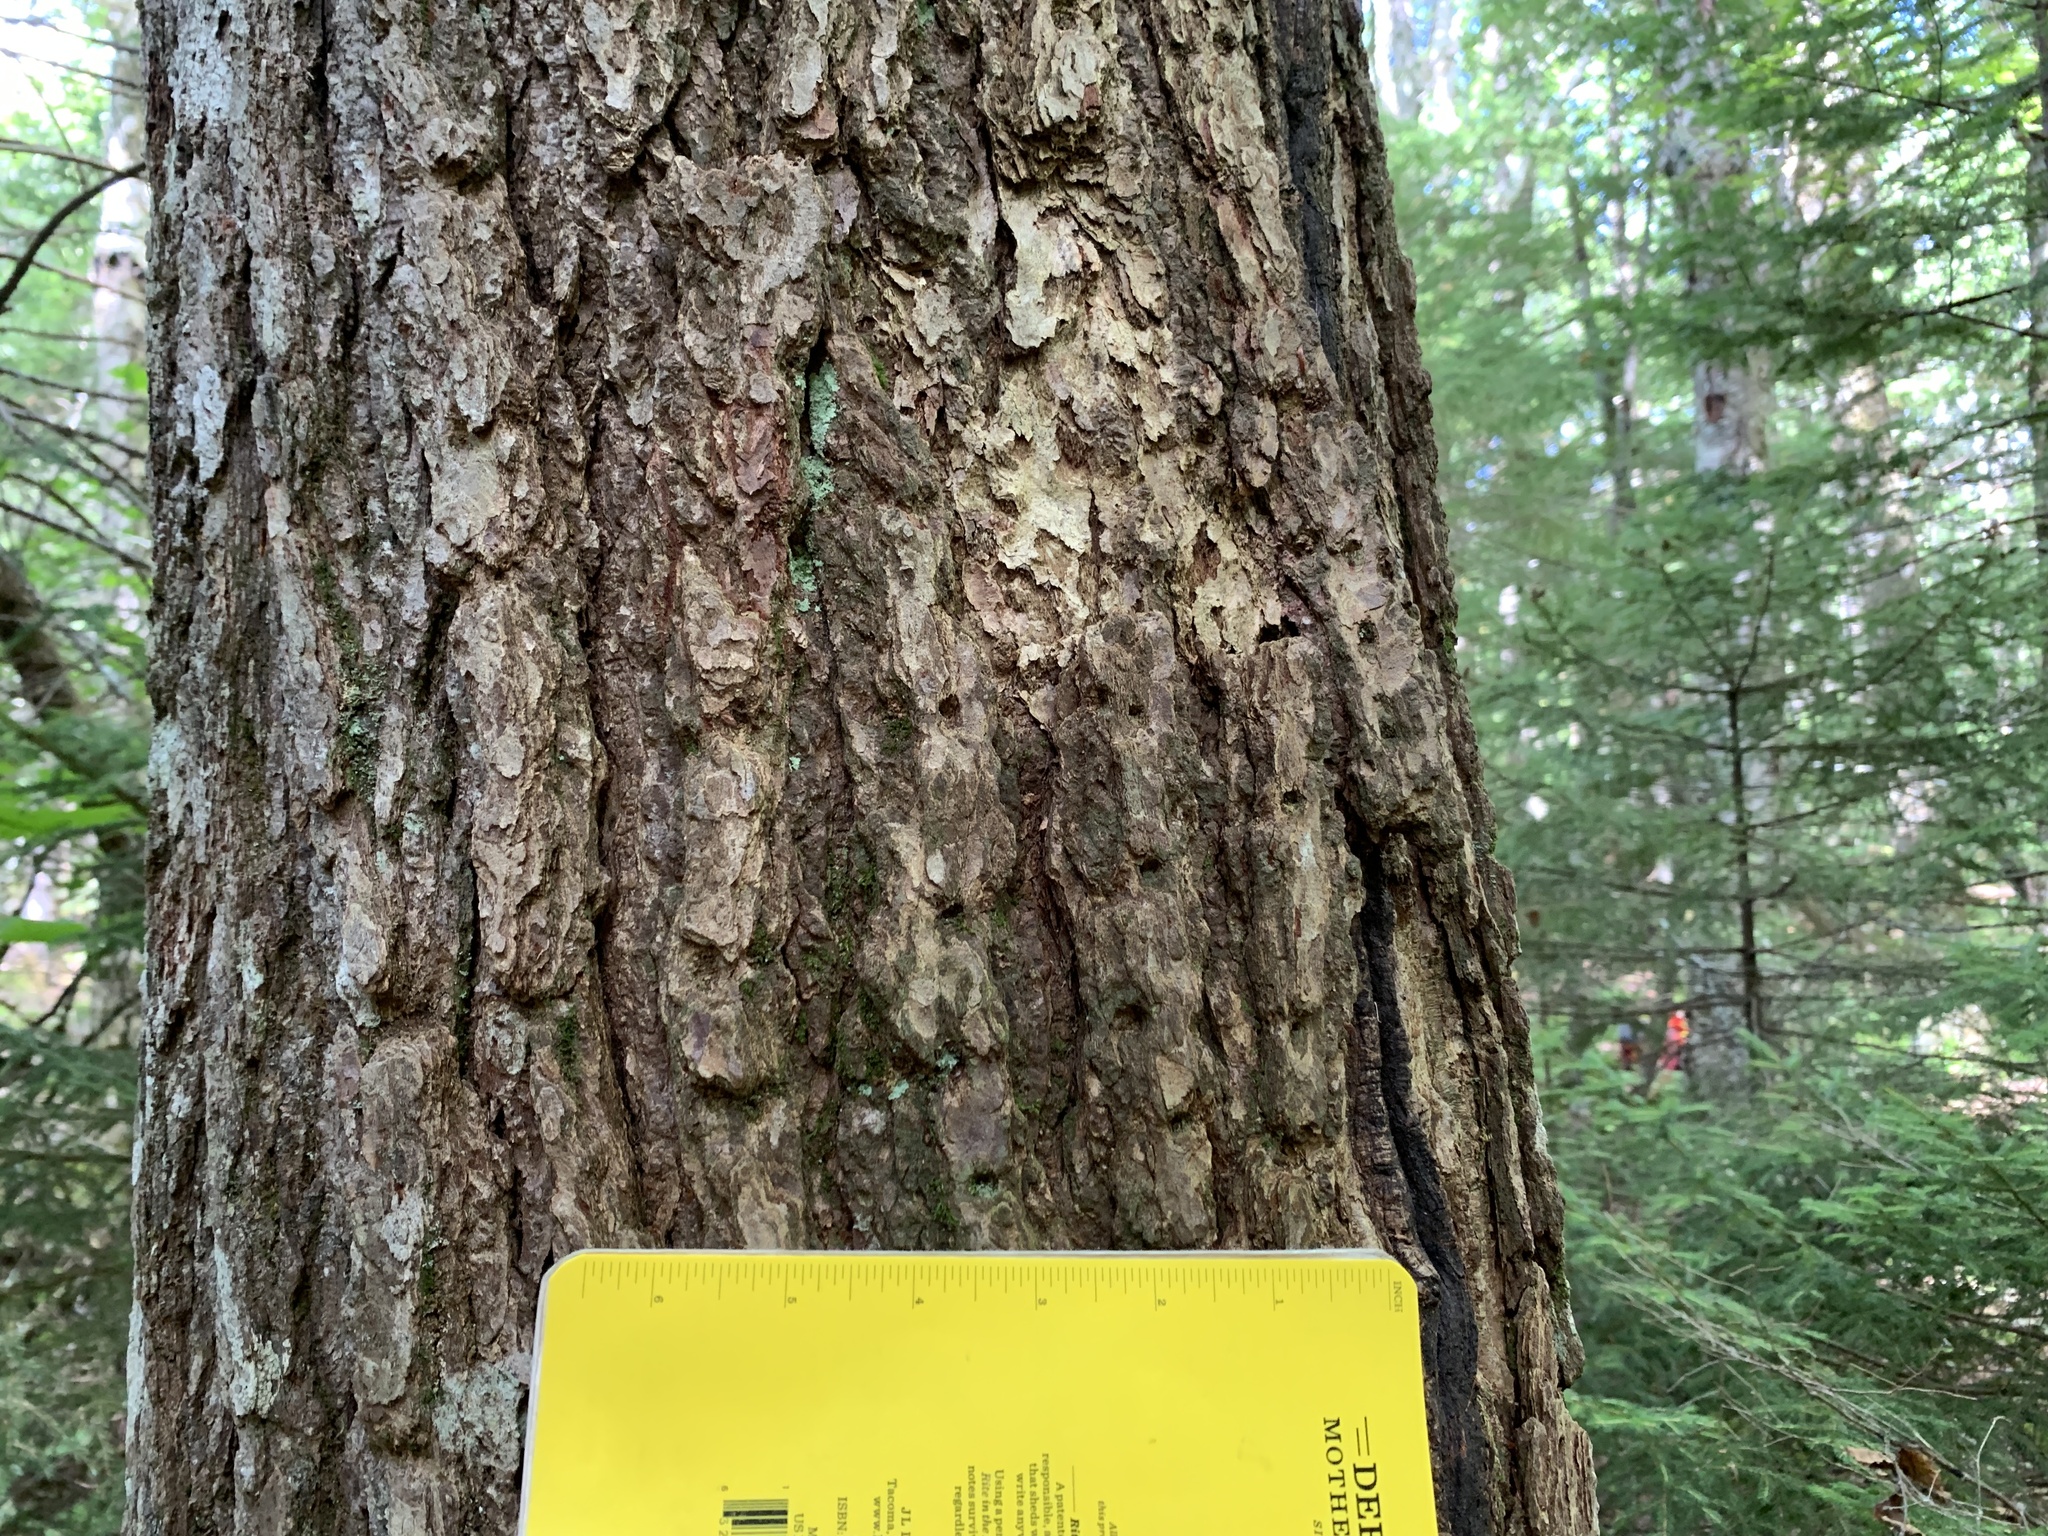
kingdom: Animalia
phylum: Chordata
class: Aves
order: Piciformes
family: Picidae
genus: Sphyrapicus
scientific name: Sphyrapicus varius
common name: Yellow-bellied sapsucker
